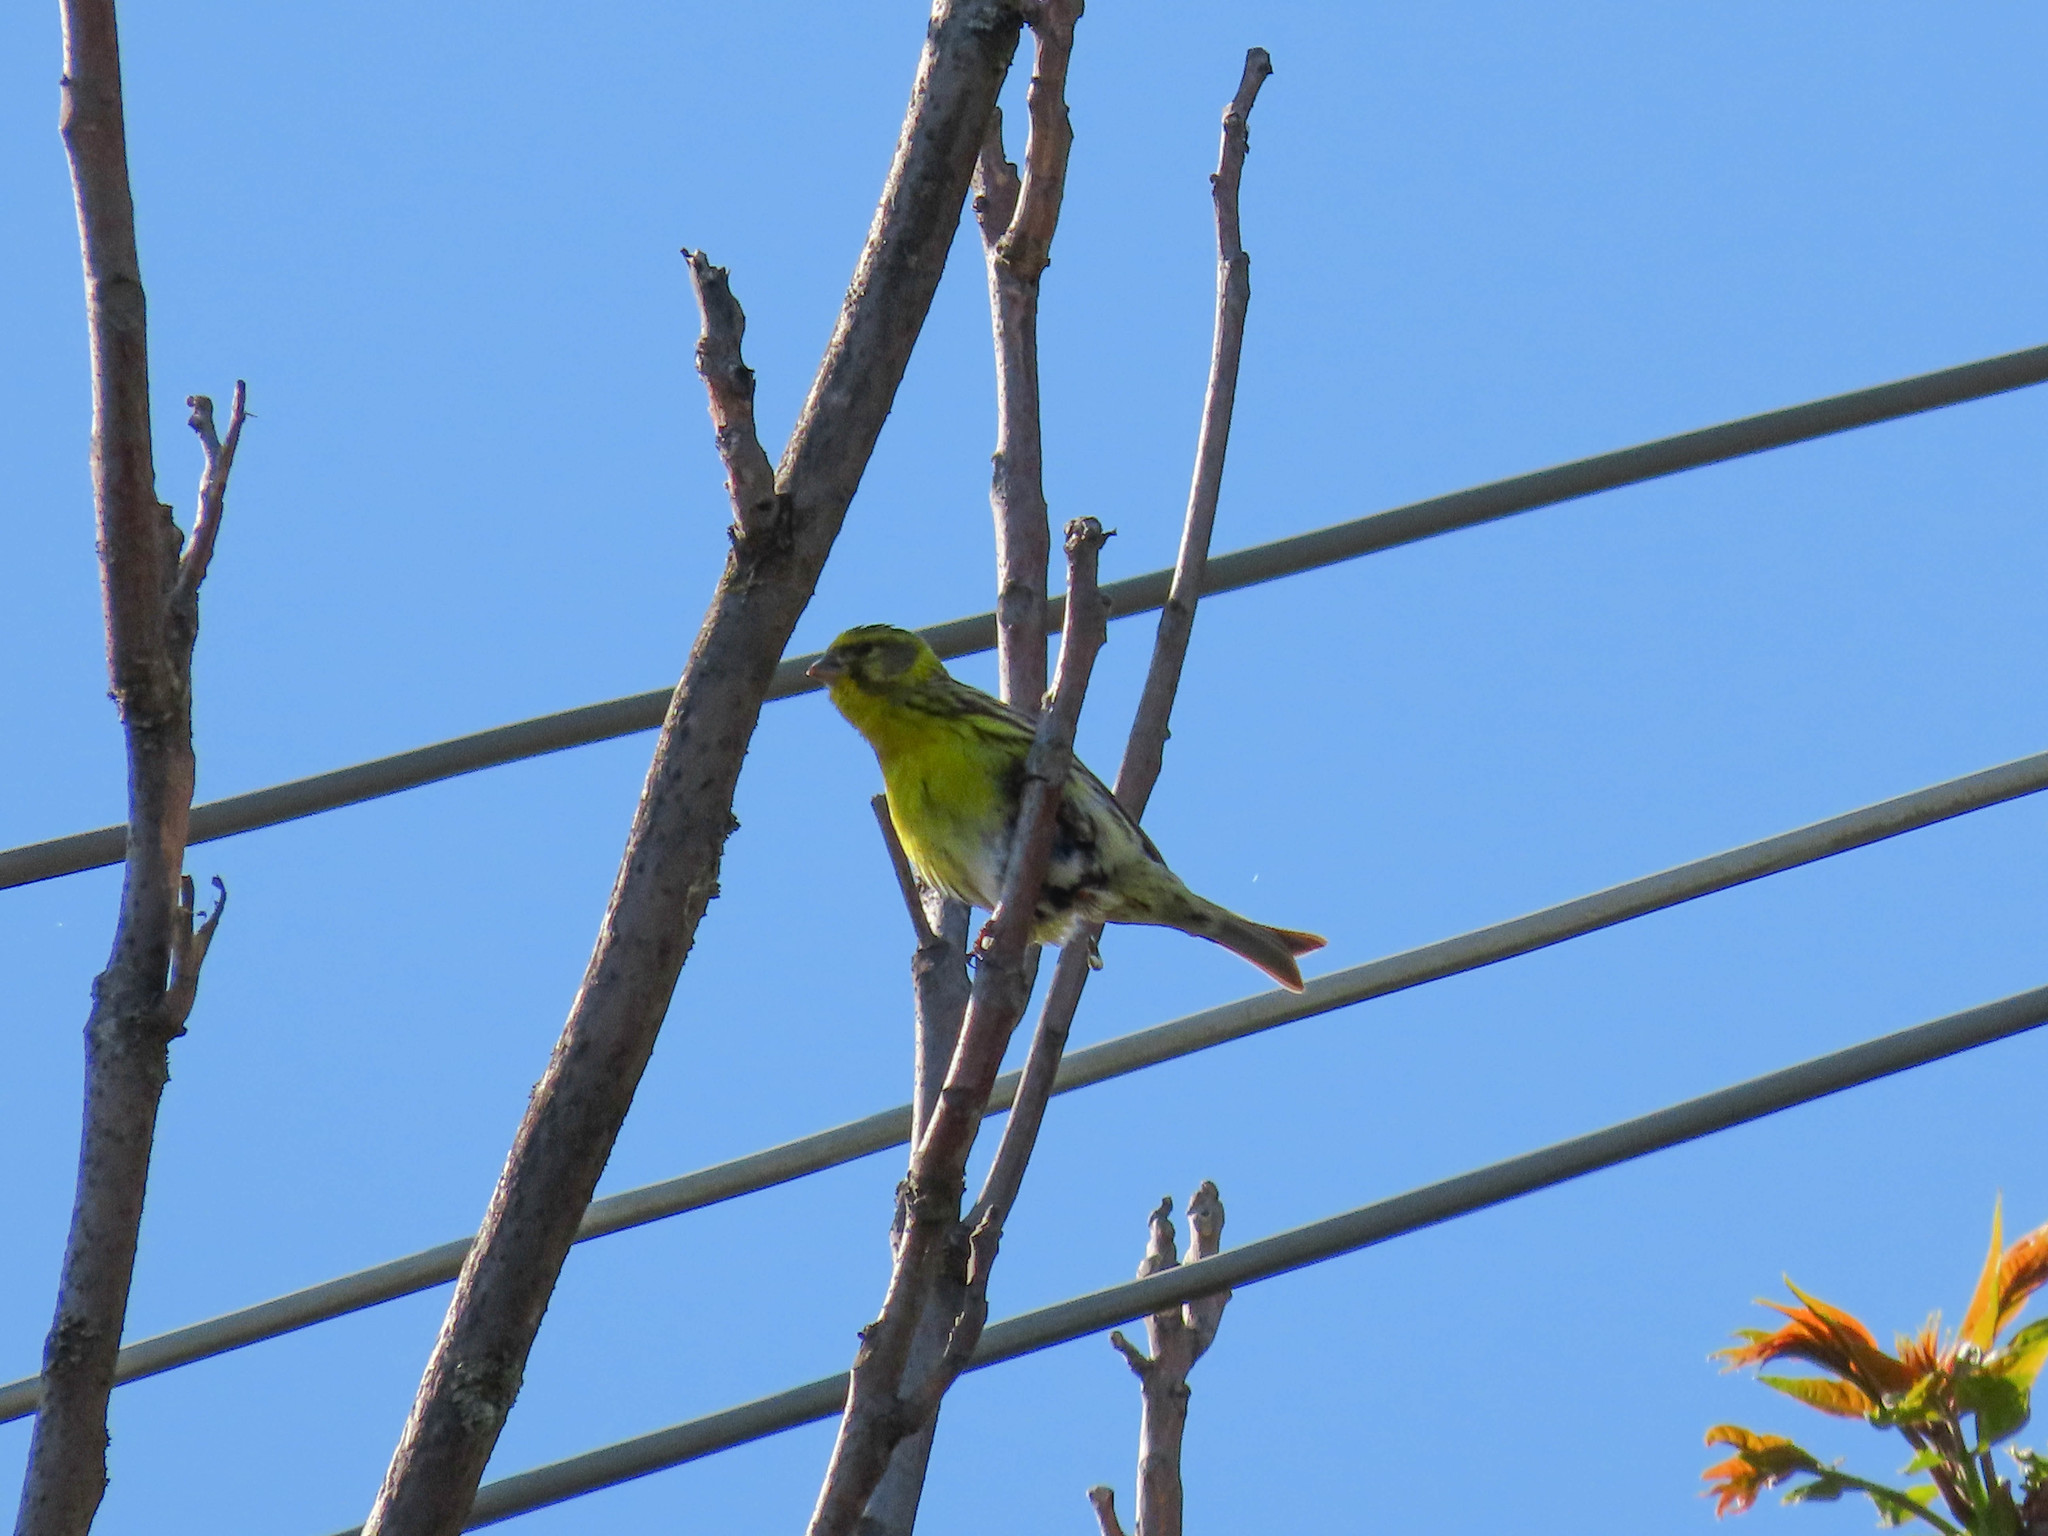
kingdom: Animalia
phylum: Chordata
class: Aves
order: Passeriformes
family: Fringillidae
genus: Serinus
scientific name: Serinus serinus
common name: European serin
